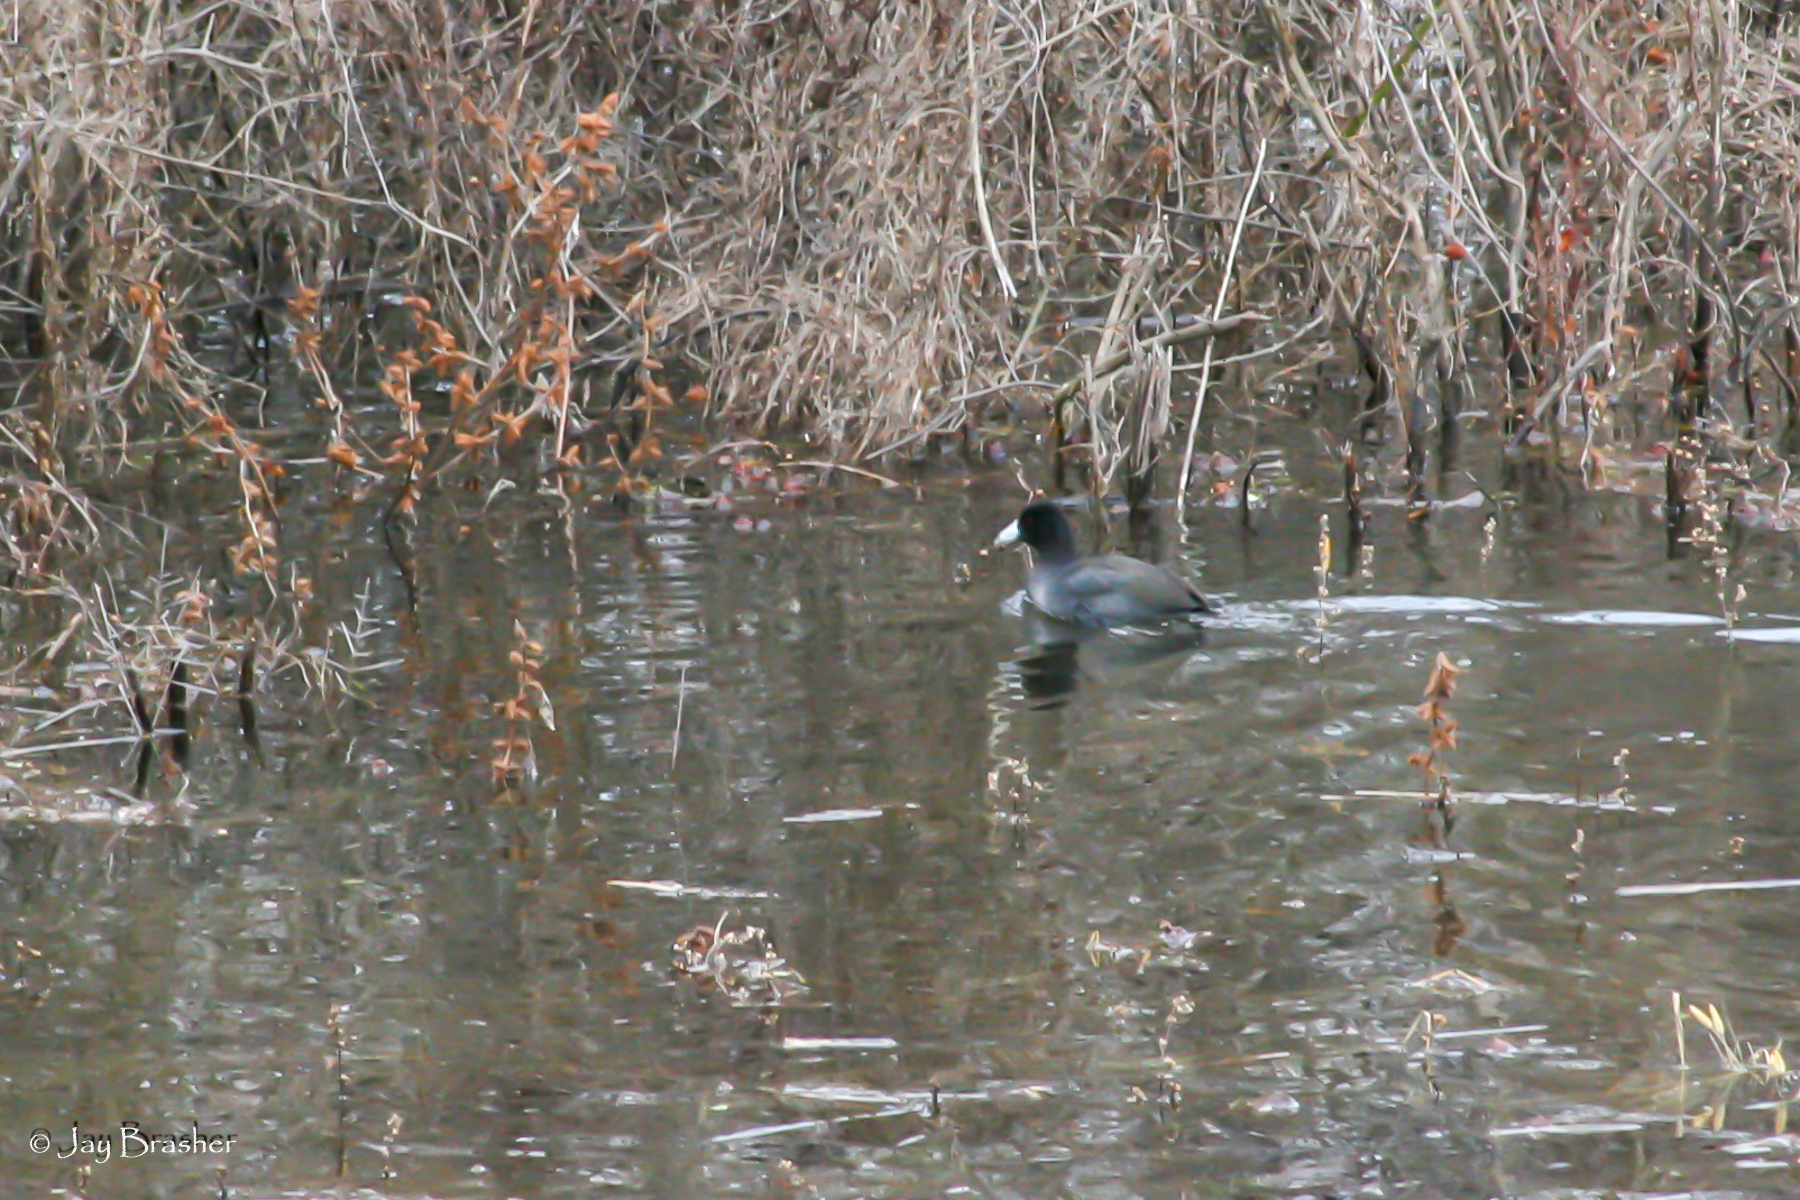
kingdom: Animalia
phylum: Chordata
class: Aves
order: Gruiformes
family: Rallidae
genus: Fulica
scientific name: Fulica americana
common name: American coot
